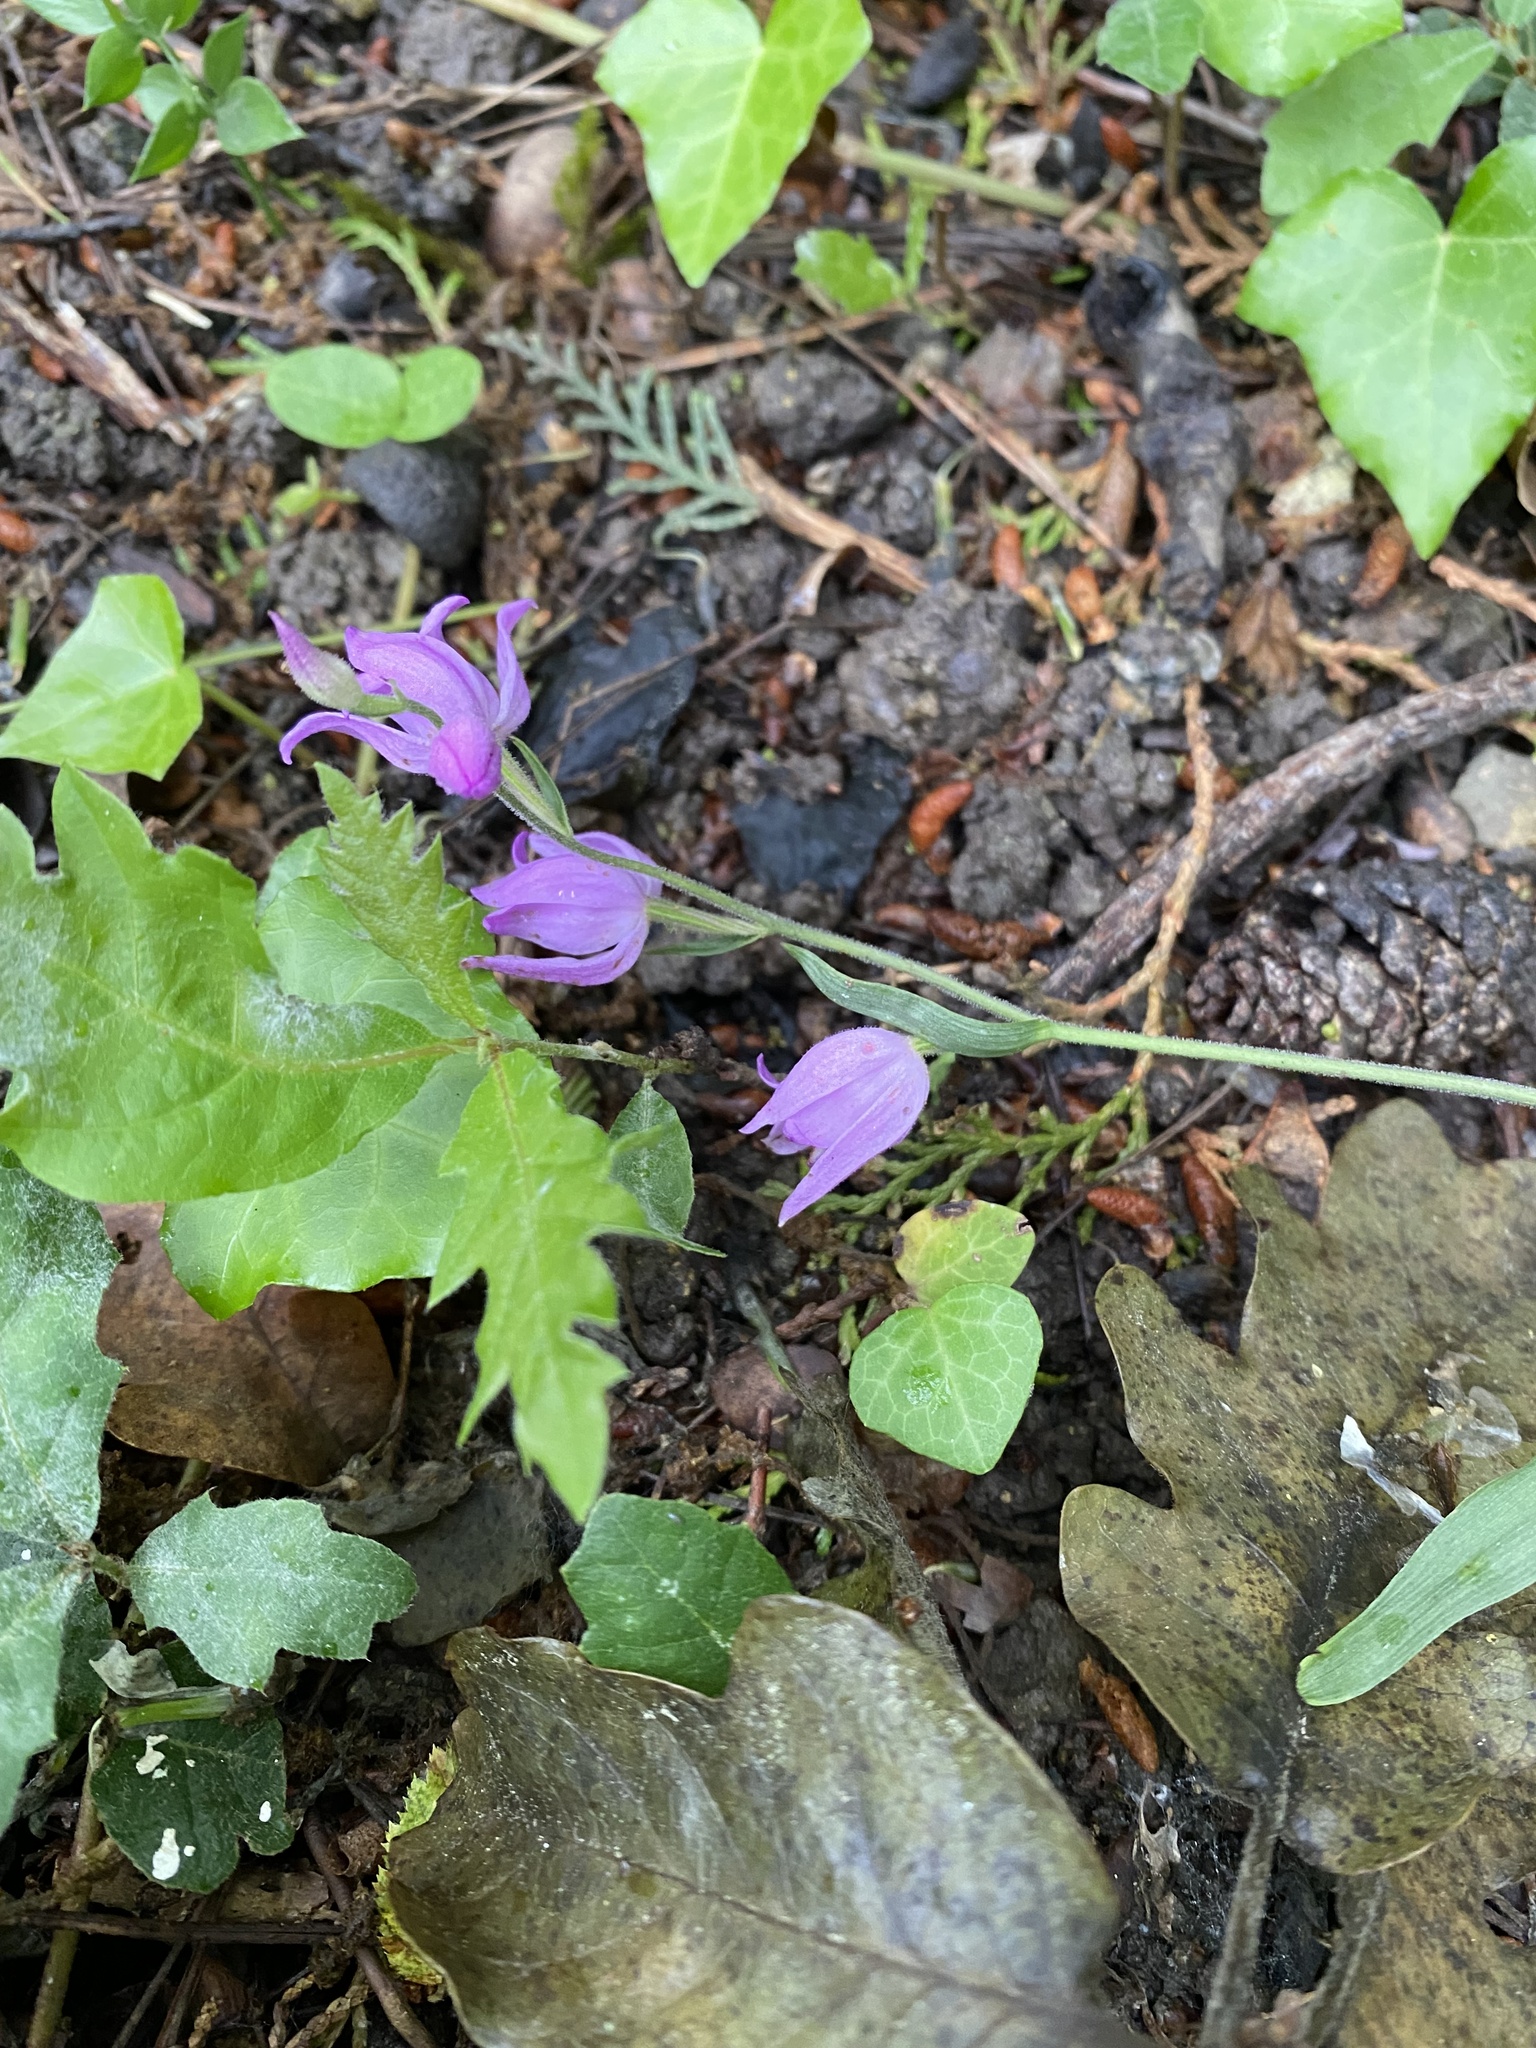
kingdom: Plantae
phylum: Tracheophyta
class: Liliopsida
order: Asparagales
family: Orchidaceae
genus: Cephalanthera
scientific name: Cephalanthera rubra
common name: Red helleborine
